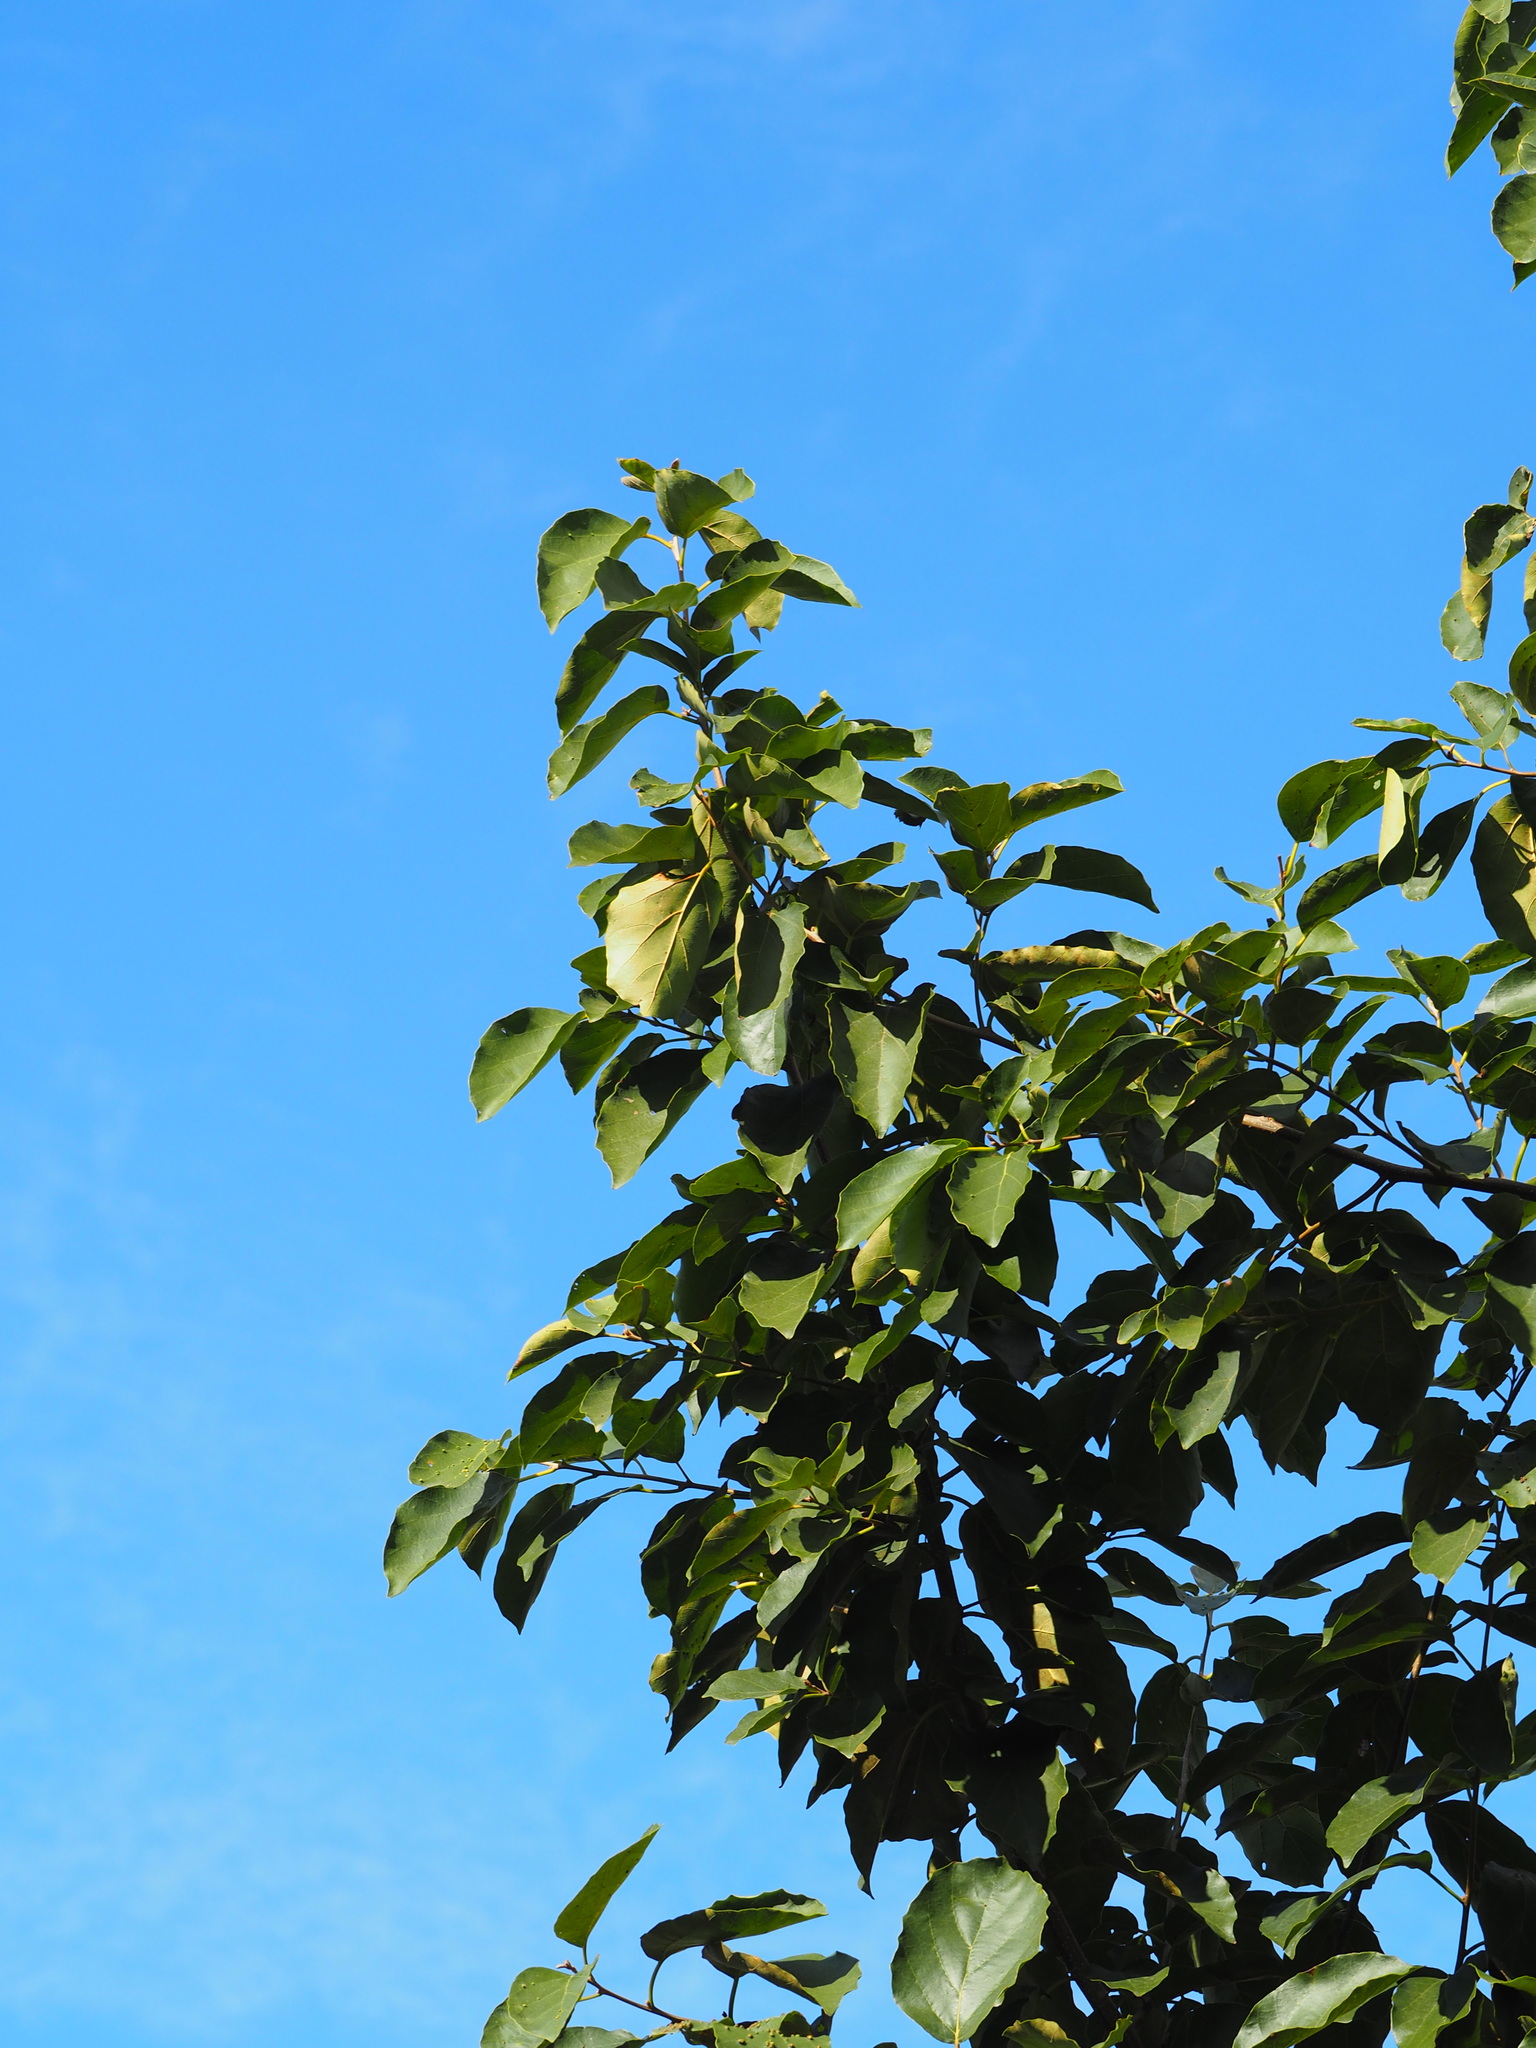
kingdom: Plantae
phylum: Tracheophyta
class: Magnoliopsida
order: Boraginales
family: Cordiaceae
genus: Cordia
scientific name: Cordia dichotoma
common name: Fragrant manjack
